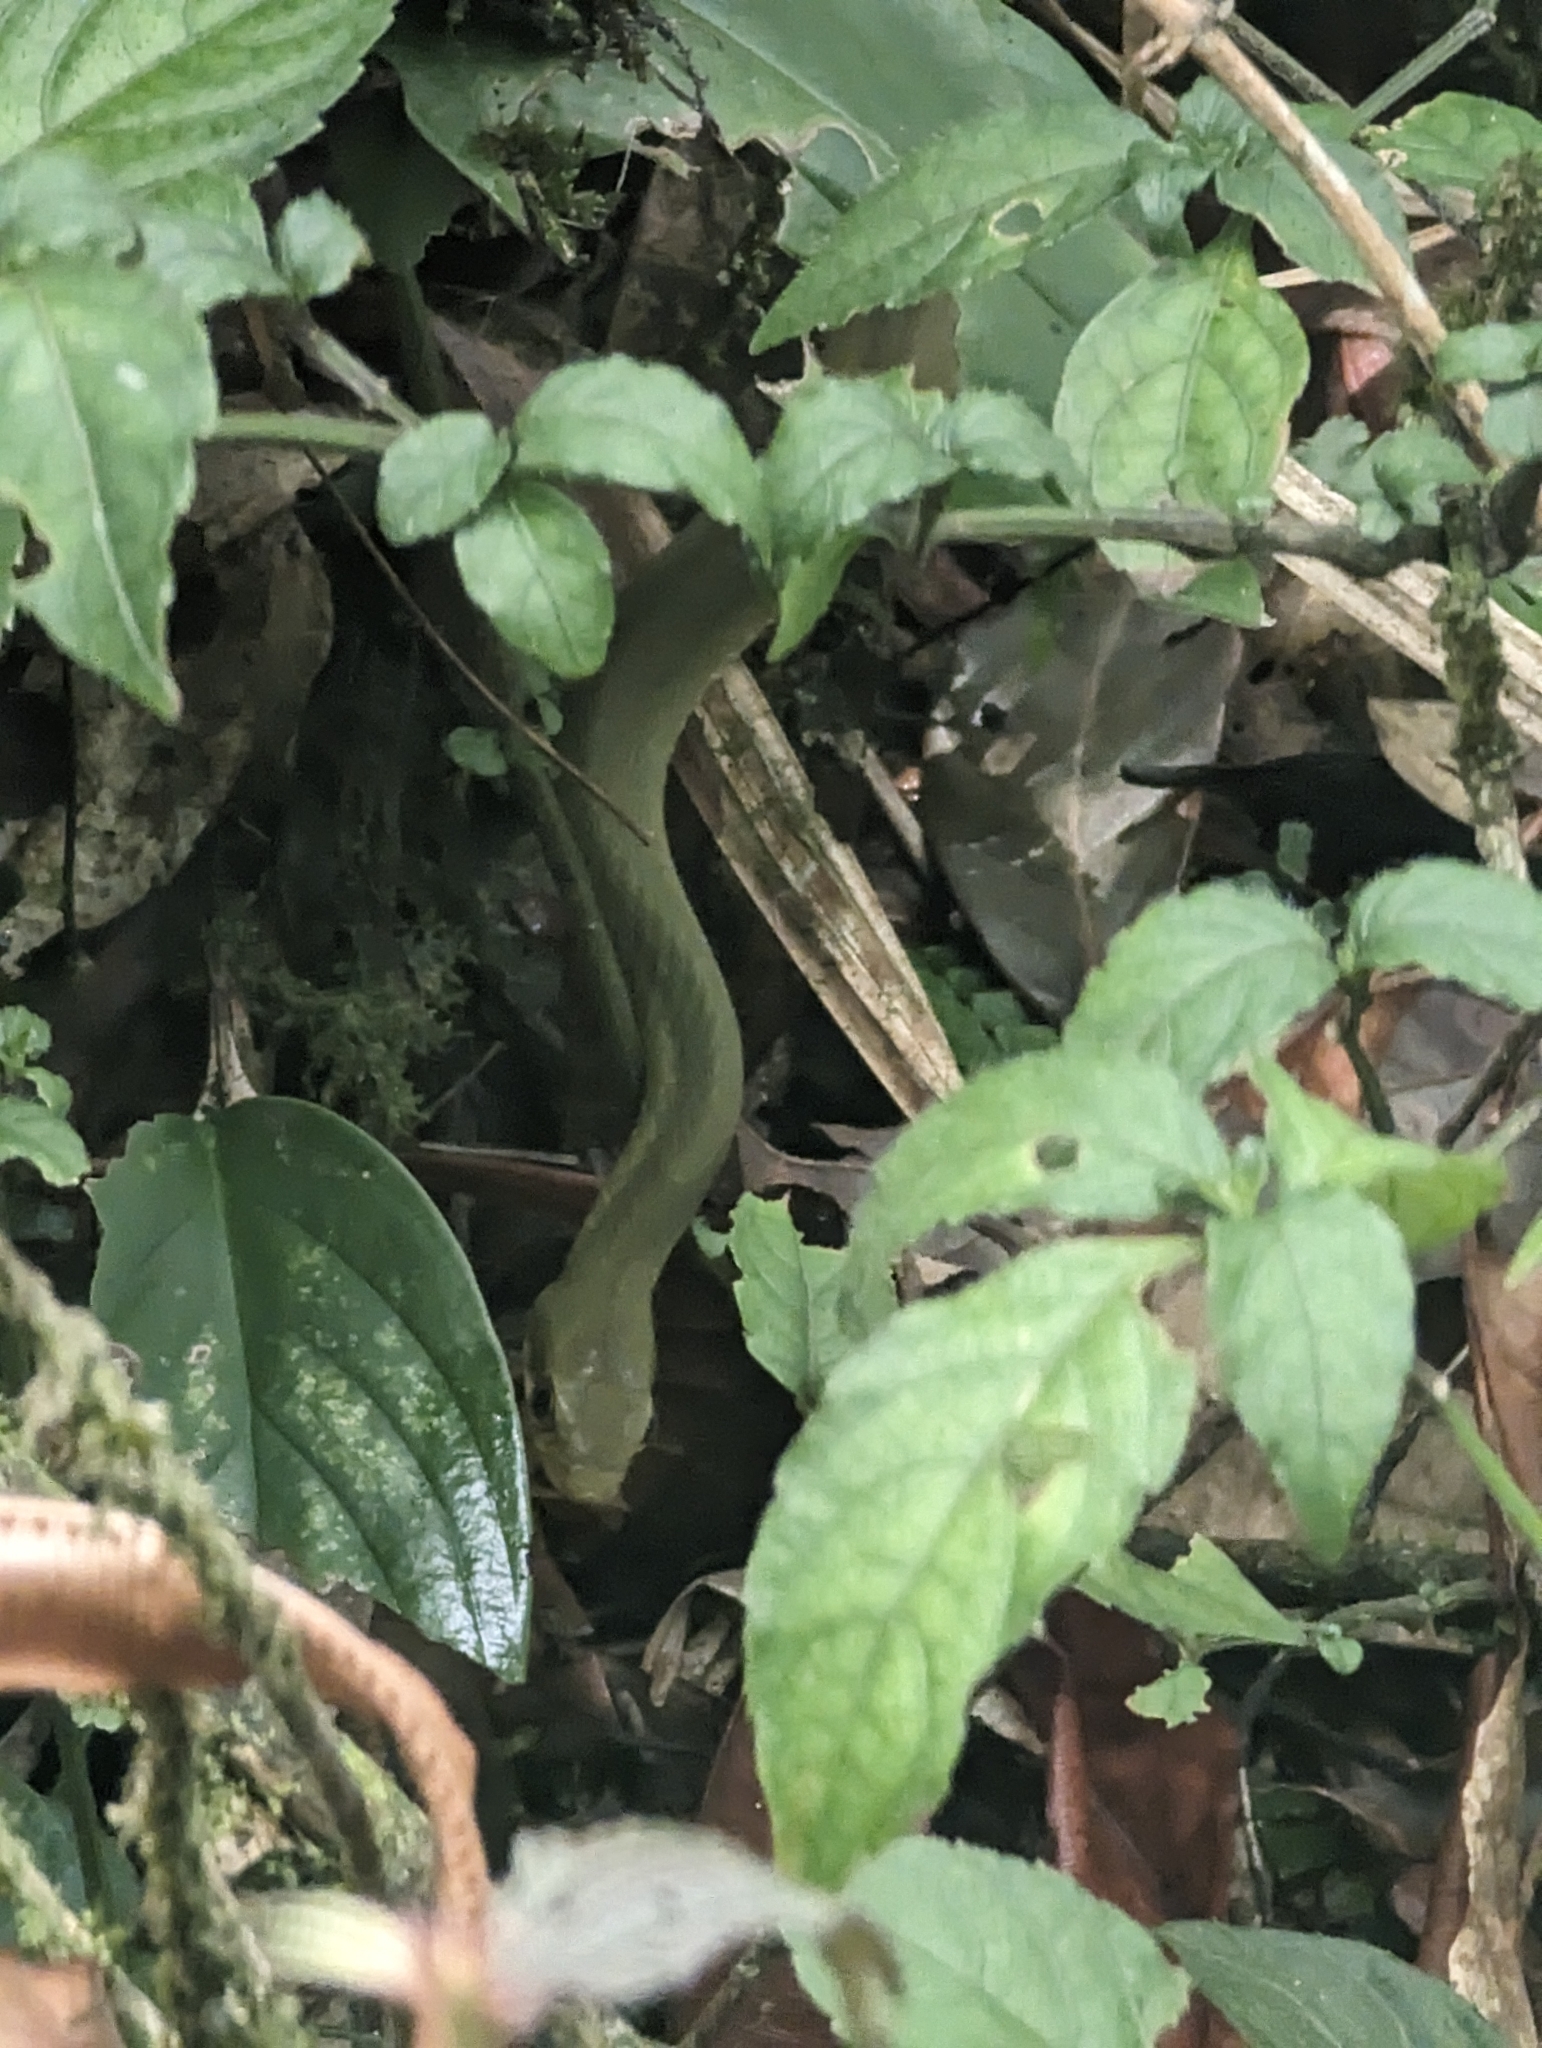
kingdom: Animalia
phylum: Chordata
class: Squamata
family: Colubridae
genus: Pseudoxenodon
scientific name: Pseudoxenodon macrops
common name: Big-eyed mountain keelback
